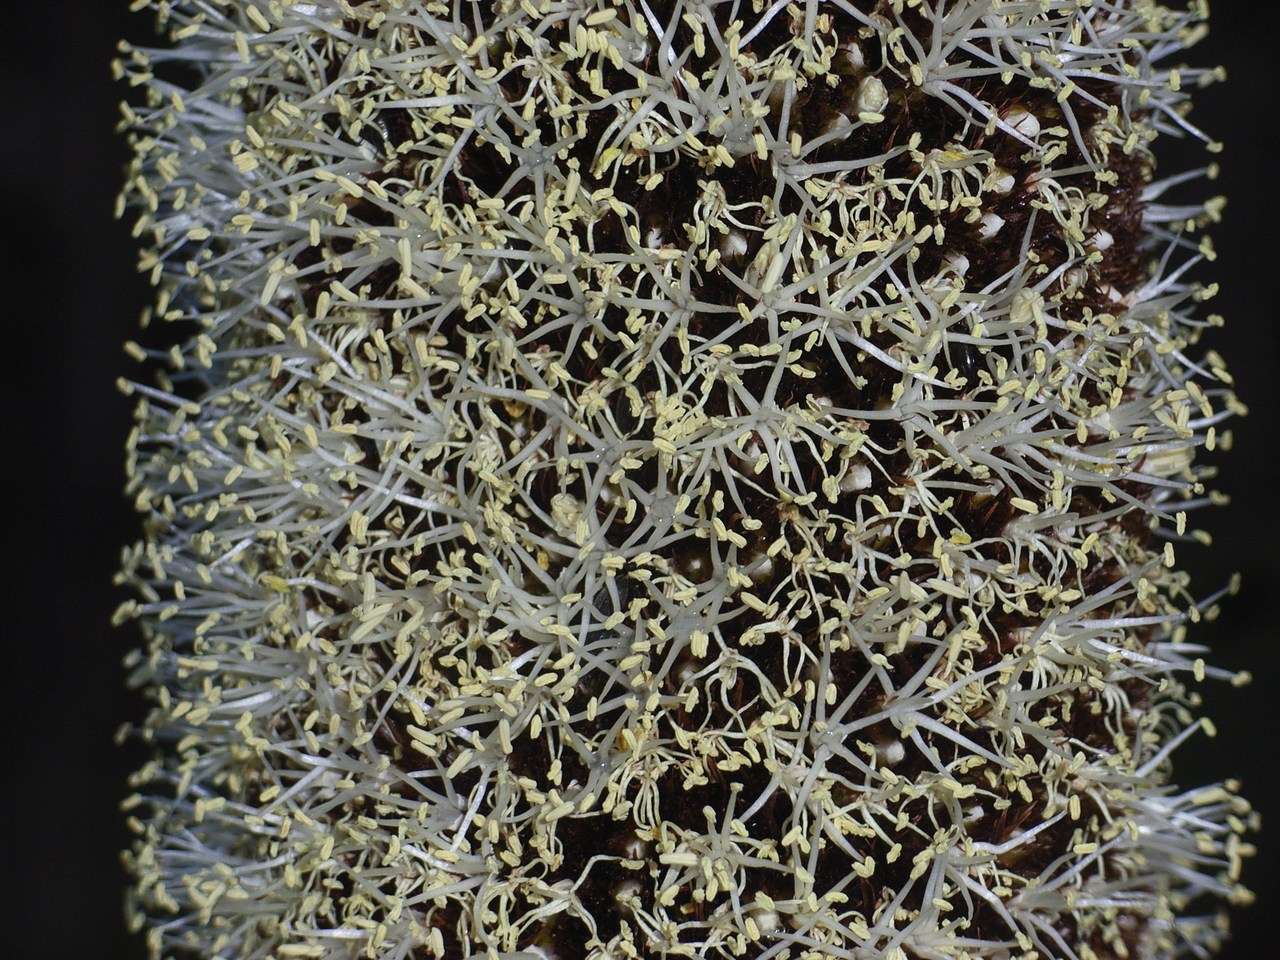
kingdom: Plantae
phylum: Tracheophyta
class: Liliopsida
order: Asparagales
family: Asphodelaceae
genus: Xanthorrhoea
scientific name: Xanthorrhoea australis
